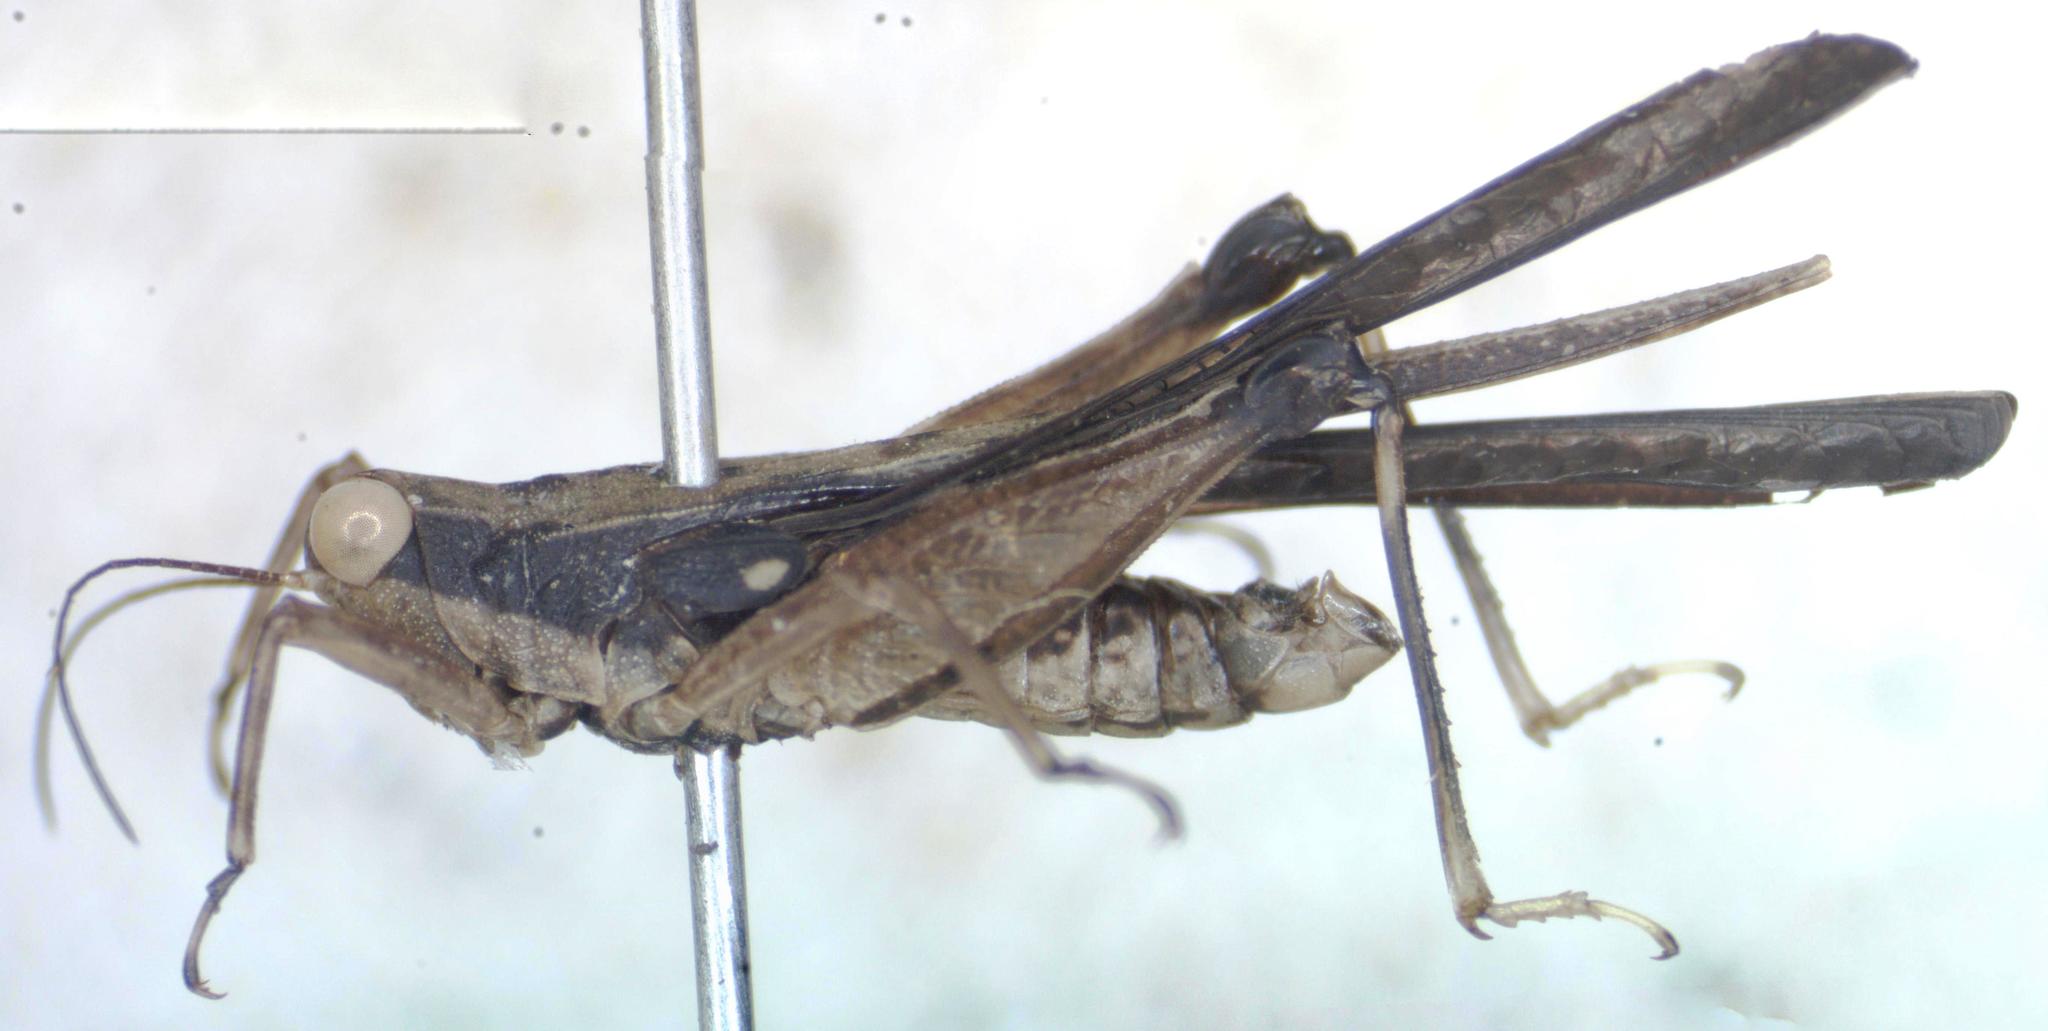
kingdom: Animalia
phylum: Arthropoda
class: Insecta
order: Orthoptera
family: Tetrigidae
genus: Scaria
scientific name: Scaria fasciata
